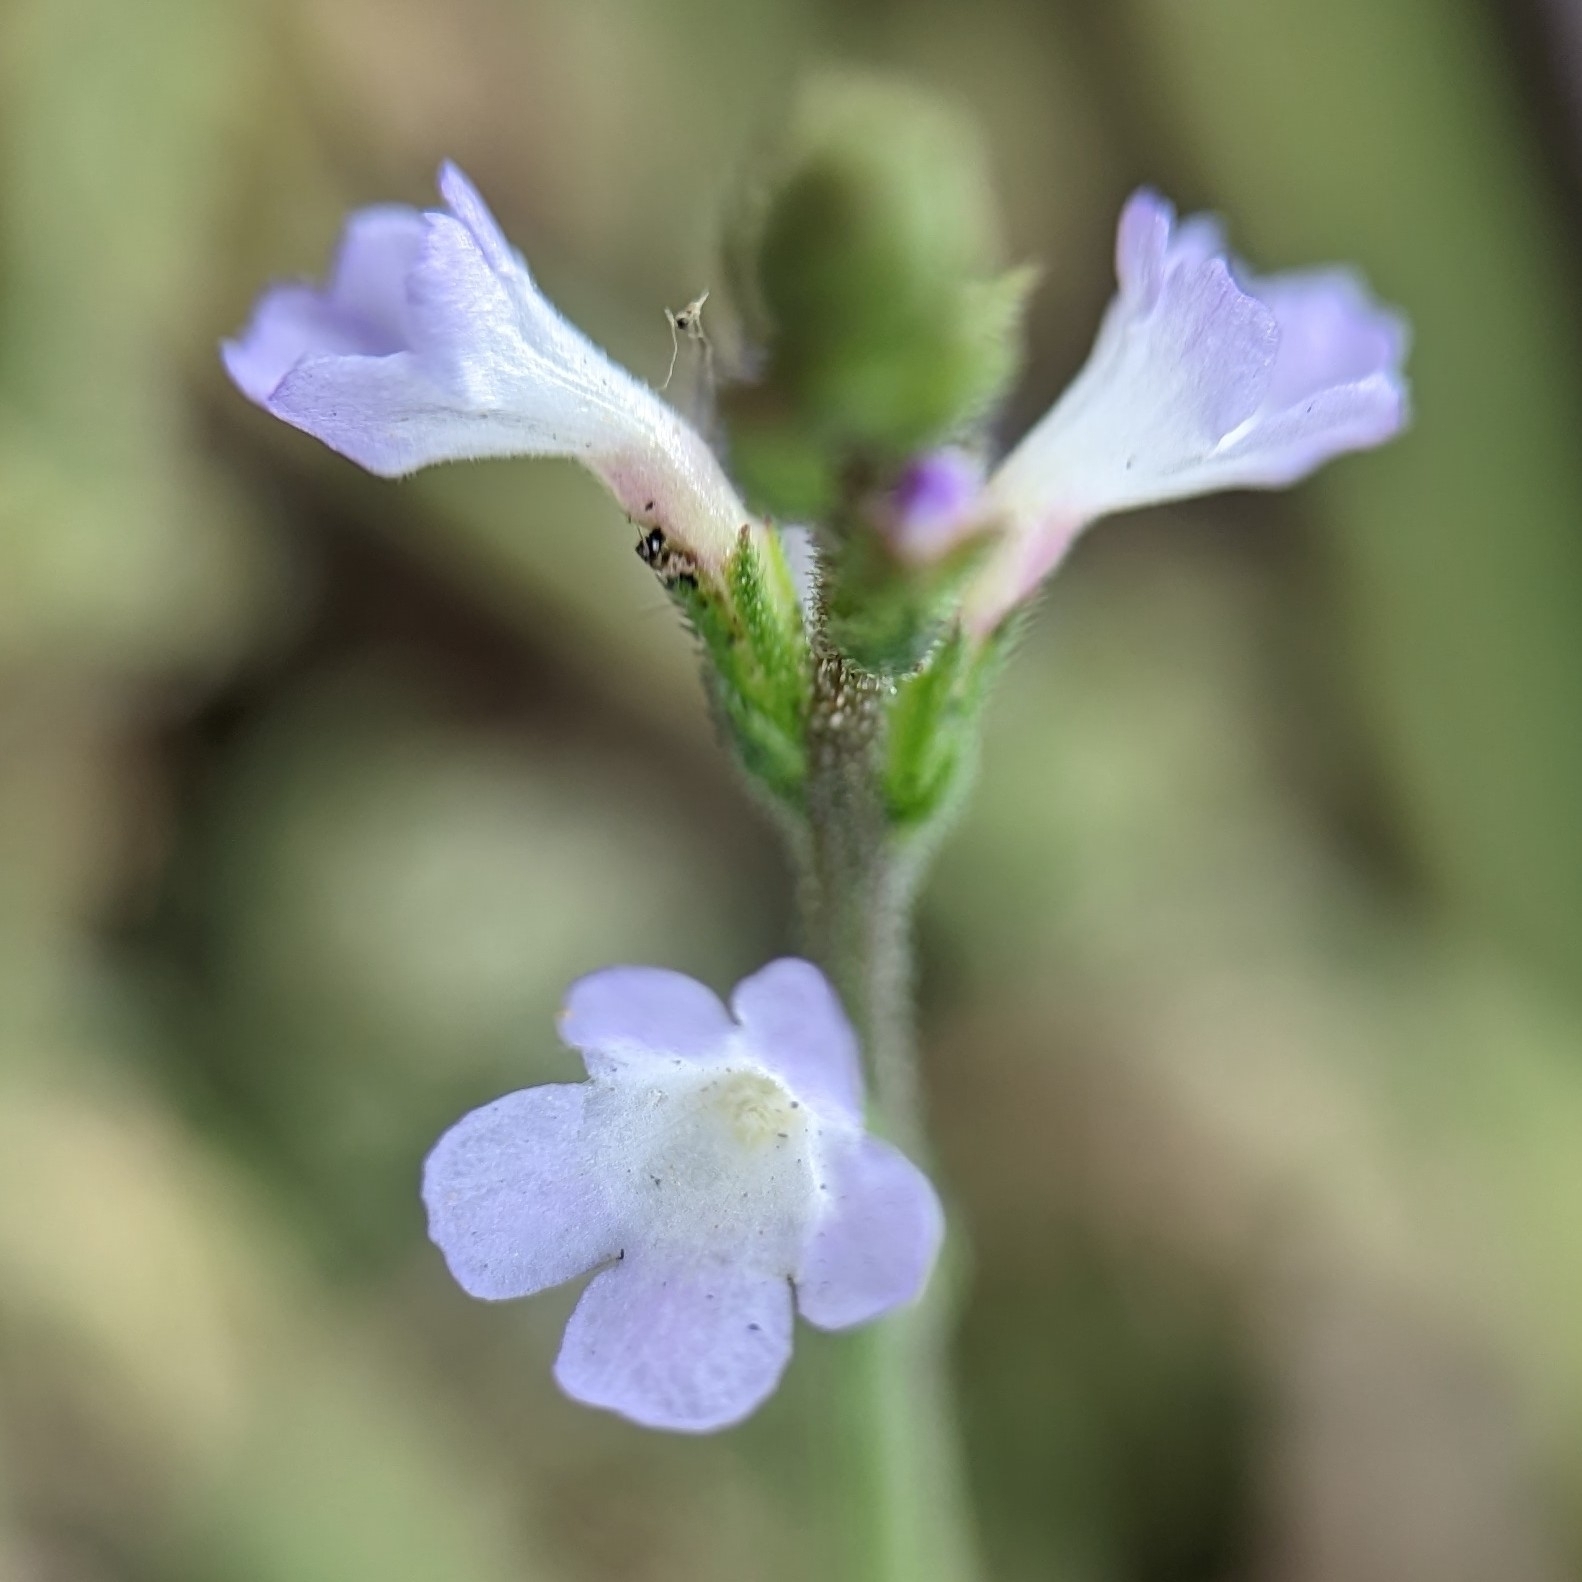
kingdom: Plantae
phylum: Tracheophyta
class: Magnoliopsida
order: Lamiales
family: Verbenaceae
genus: Verbena
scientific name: Verbena officinalis
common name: Vervain
